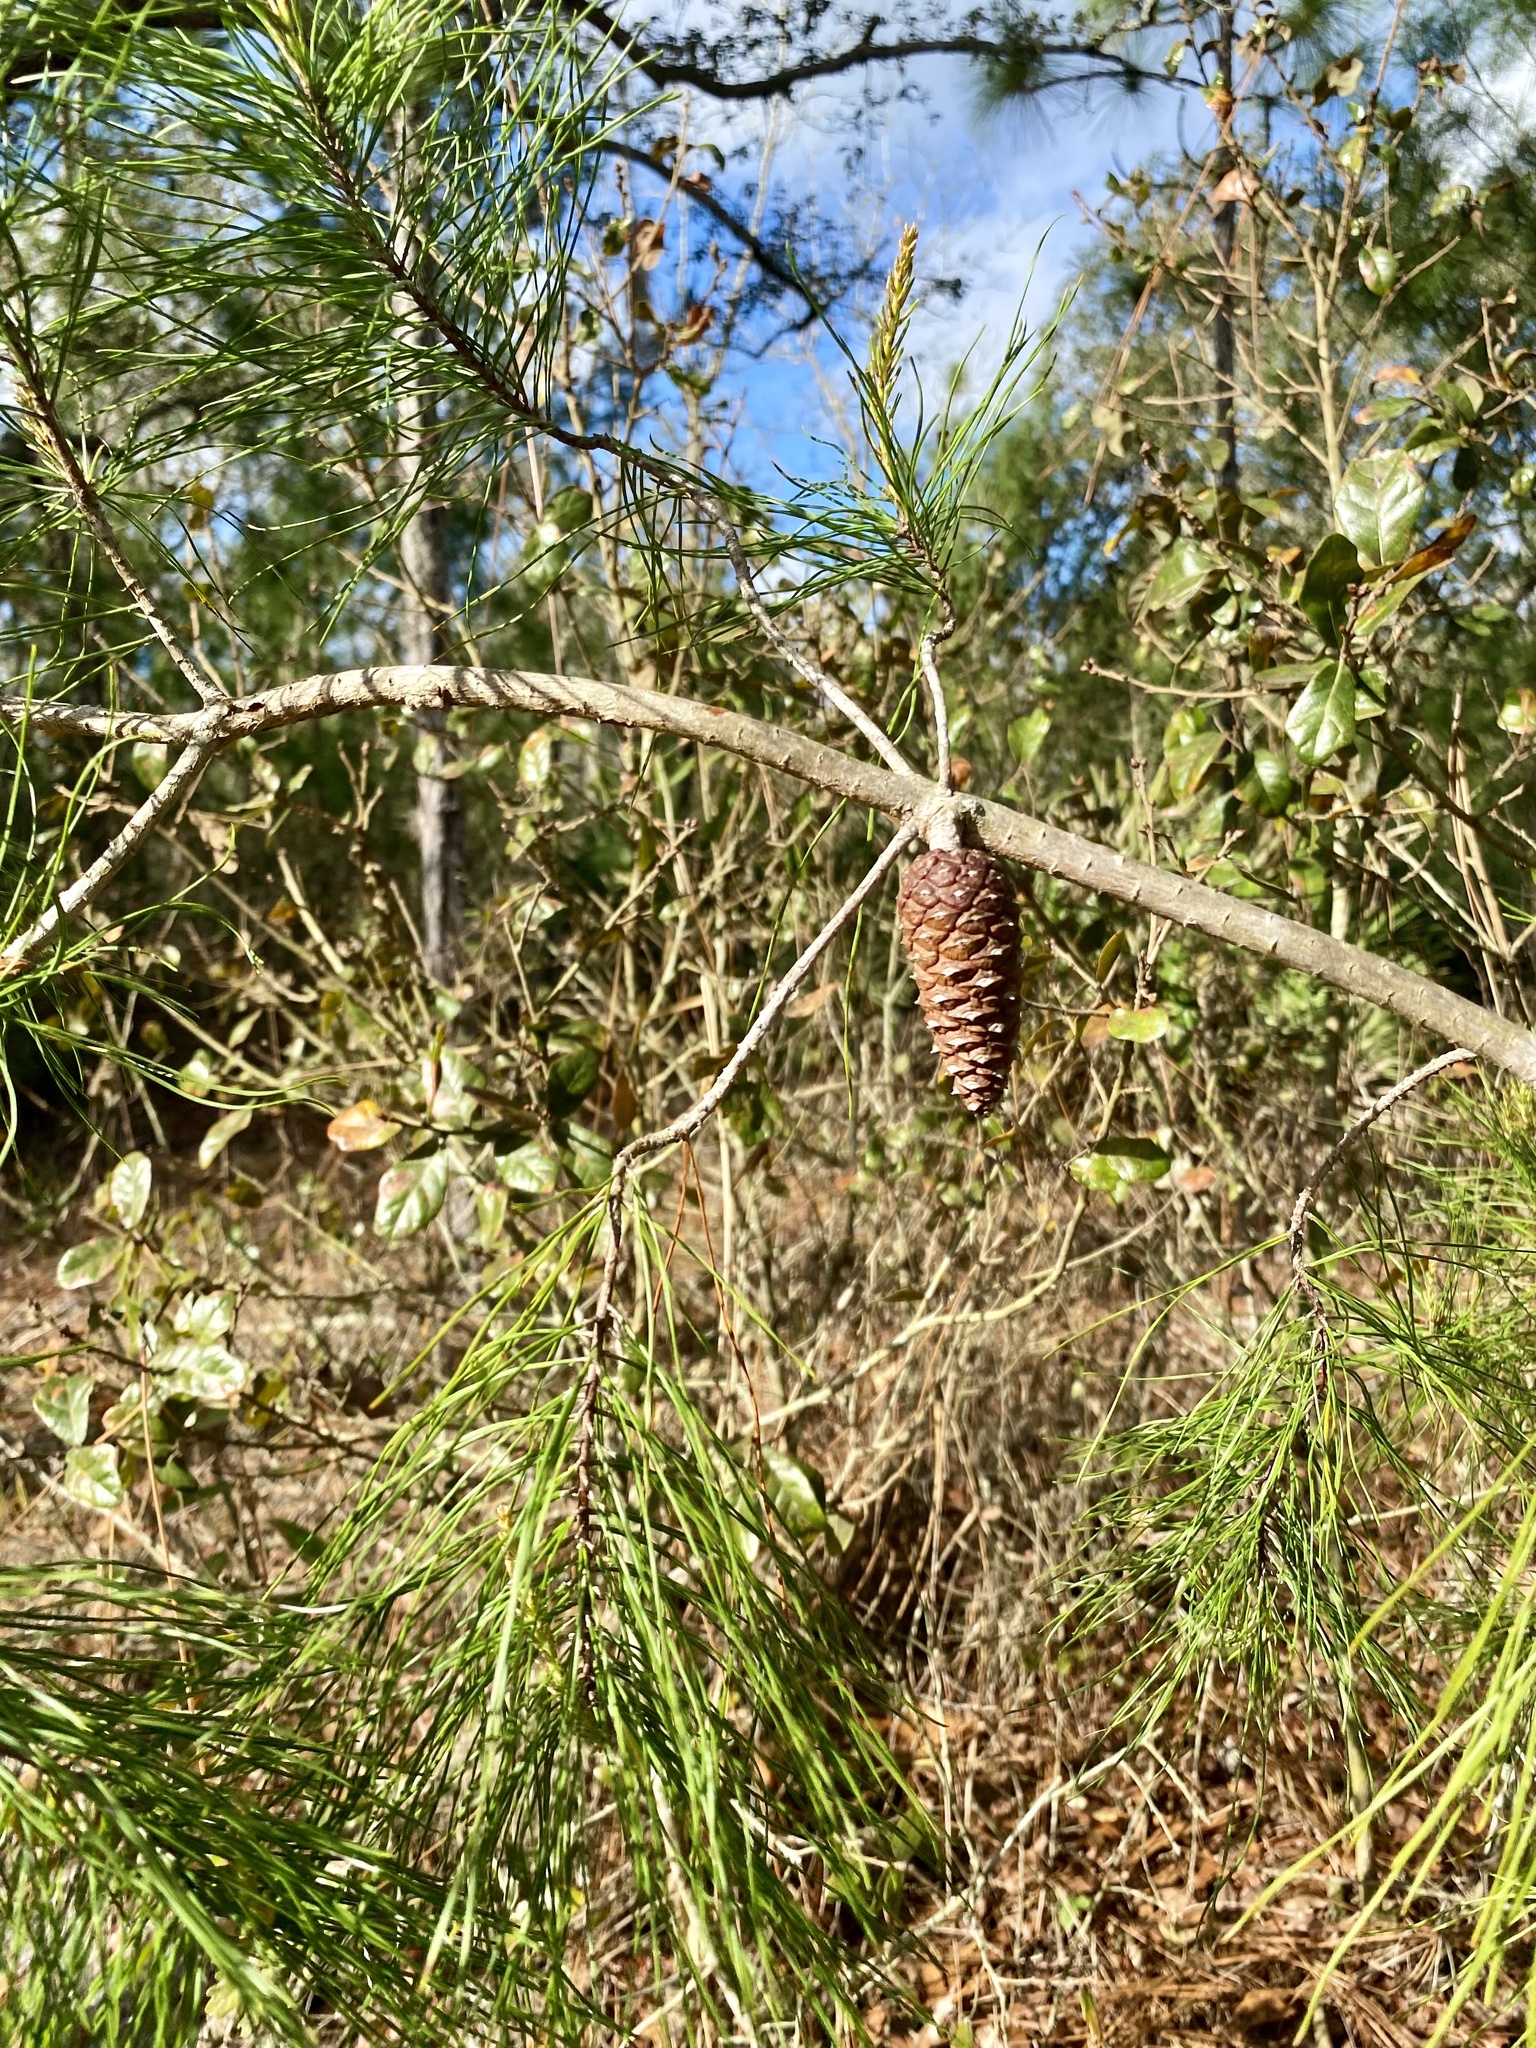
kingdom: Plantae
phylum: Tracheophyta
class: Pinopsida
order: Pinales
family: Pinaceae
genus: Pinus
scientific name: Pinus clausa
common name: Sand pine
